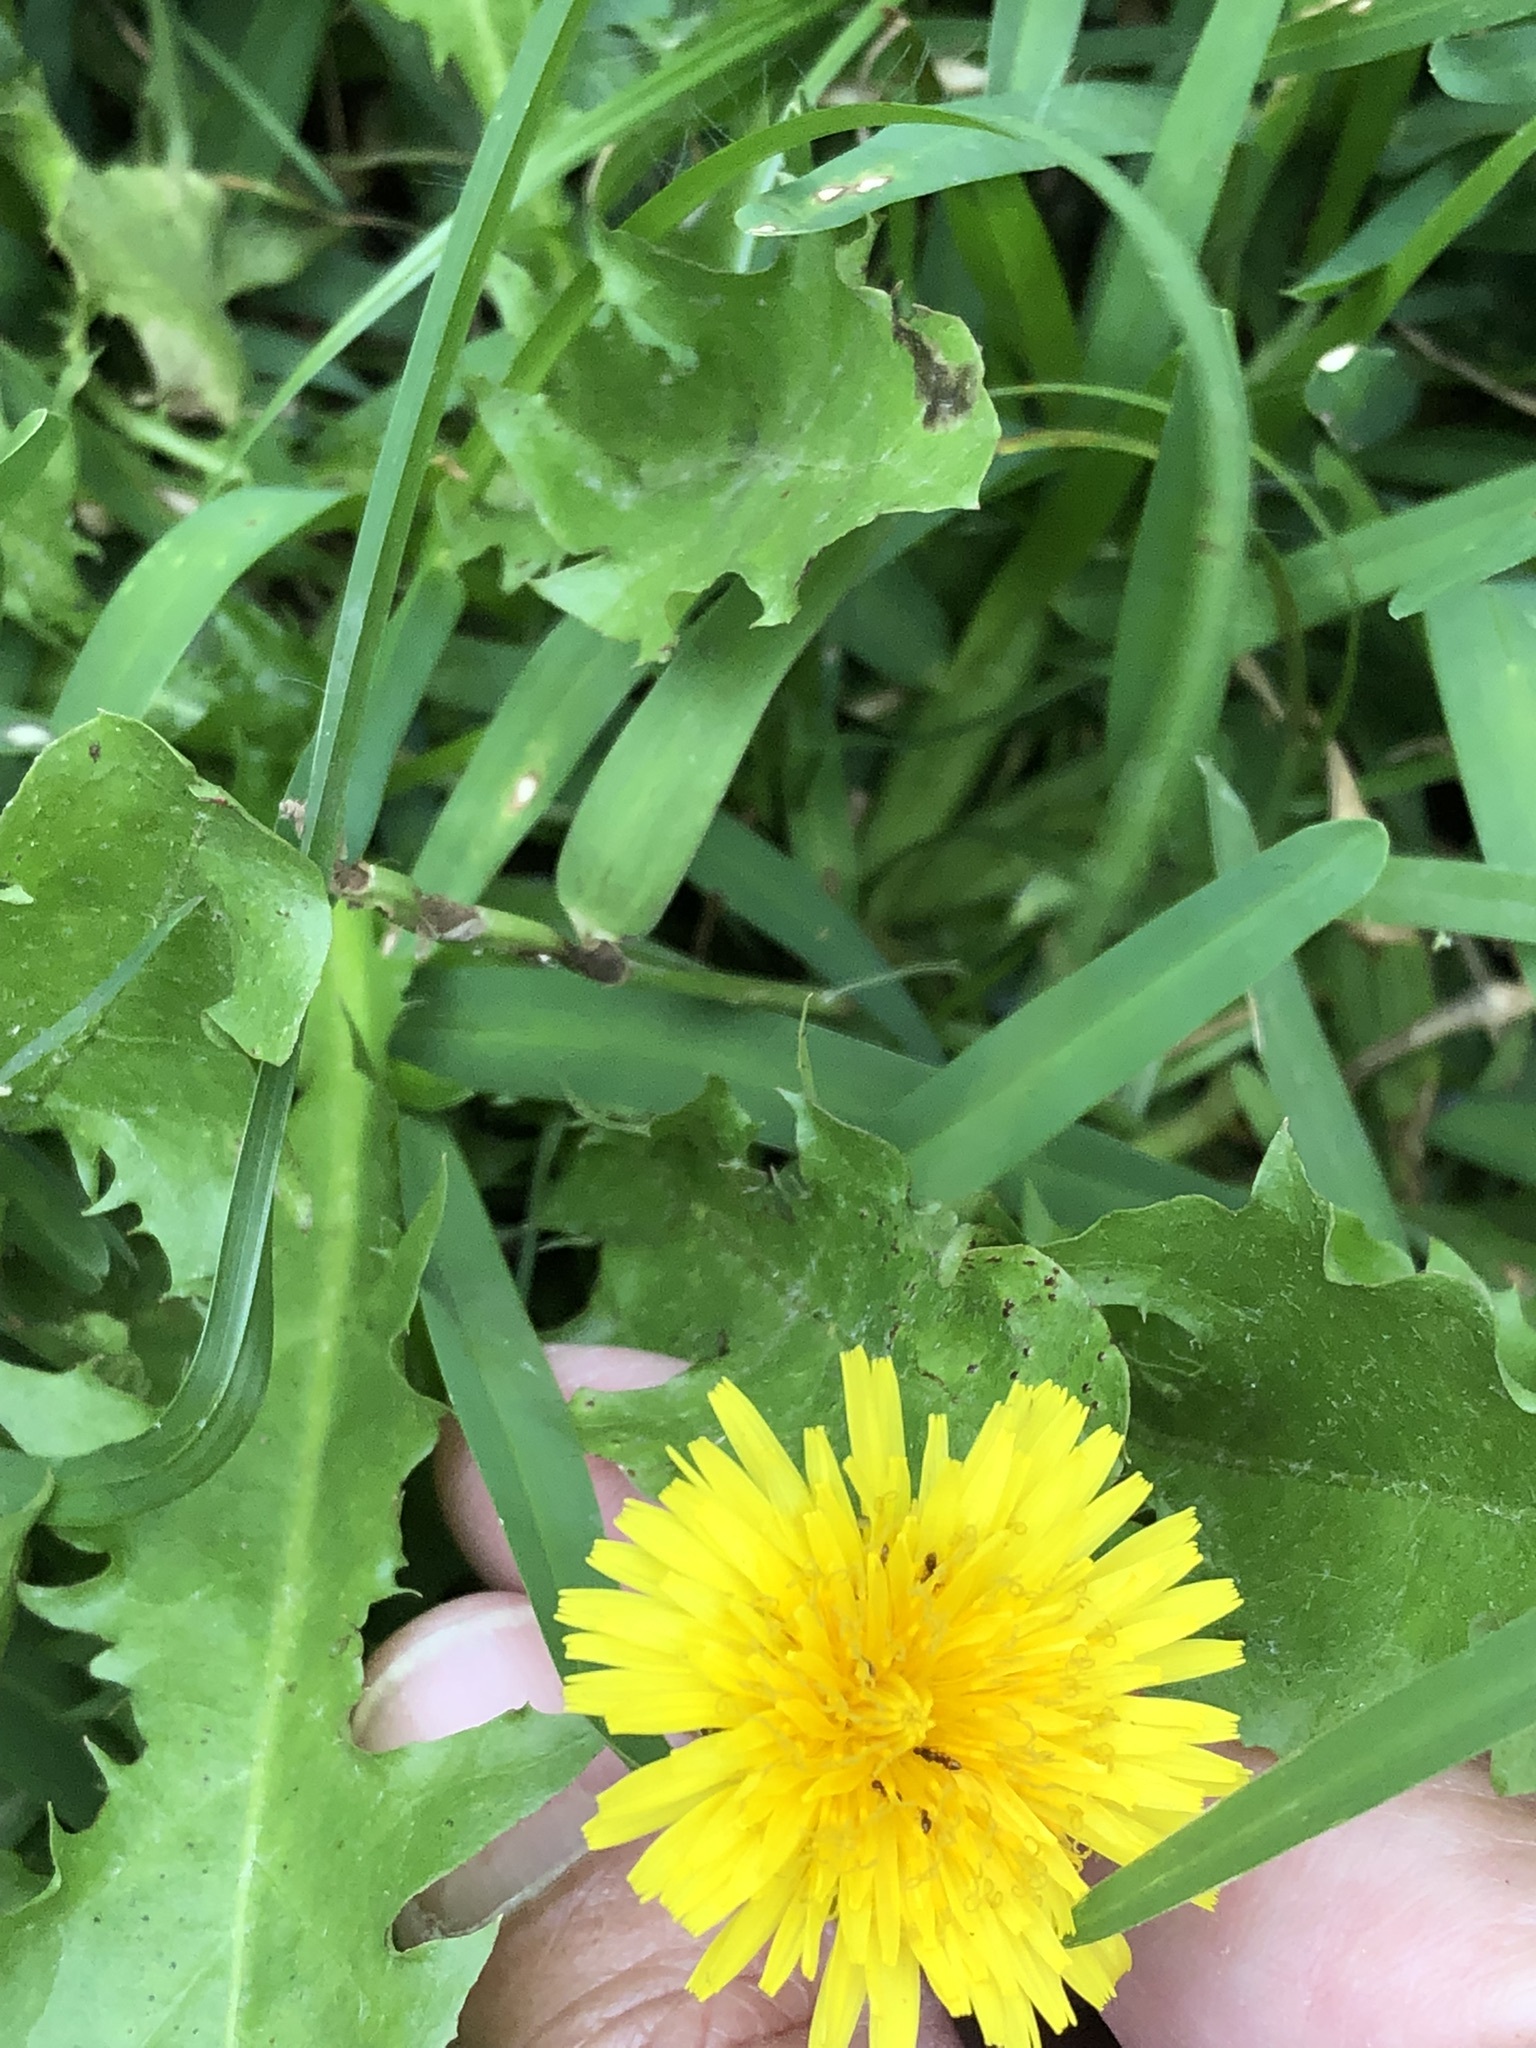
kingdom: Plantae
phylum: Tracheophyta
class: Magnoliopsida
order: Asterales
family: Asteraceae
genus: Taraxacum
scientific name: Taraxacum officinale
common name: Common dandelion
